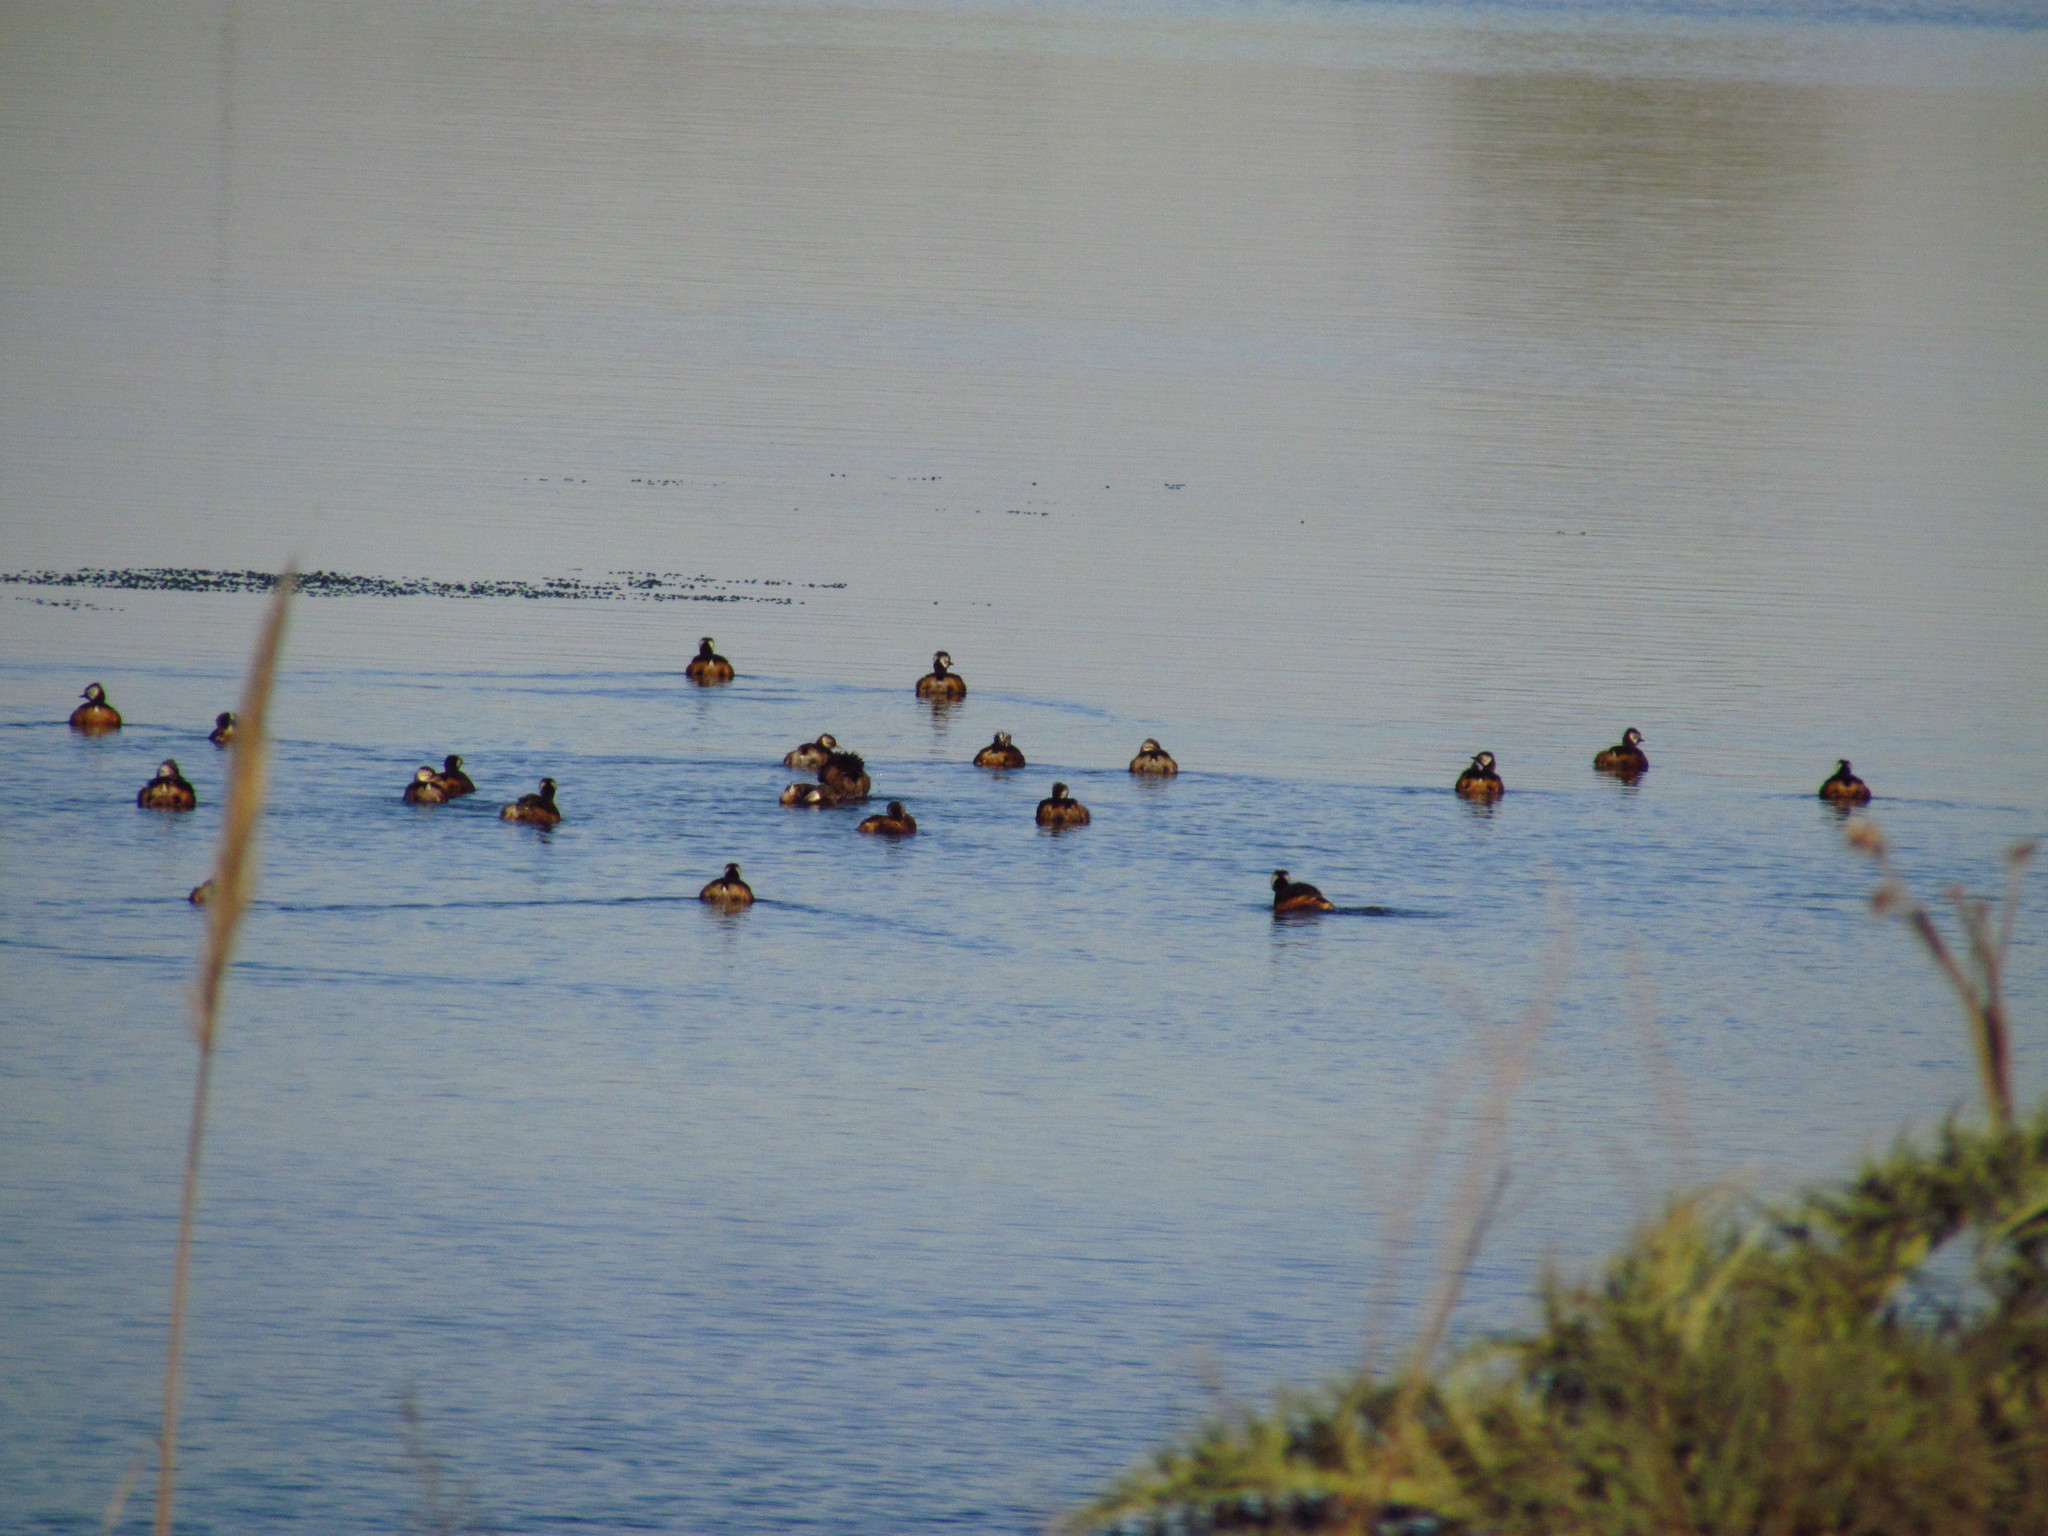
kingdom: Animalia
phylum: Chordata
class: Aves
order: Podicipediformes
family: Podicipedidae
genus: Rollandia
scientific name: Rollandia rolland
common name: White-tufted grebe
